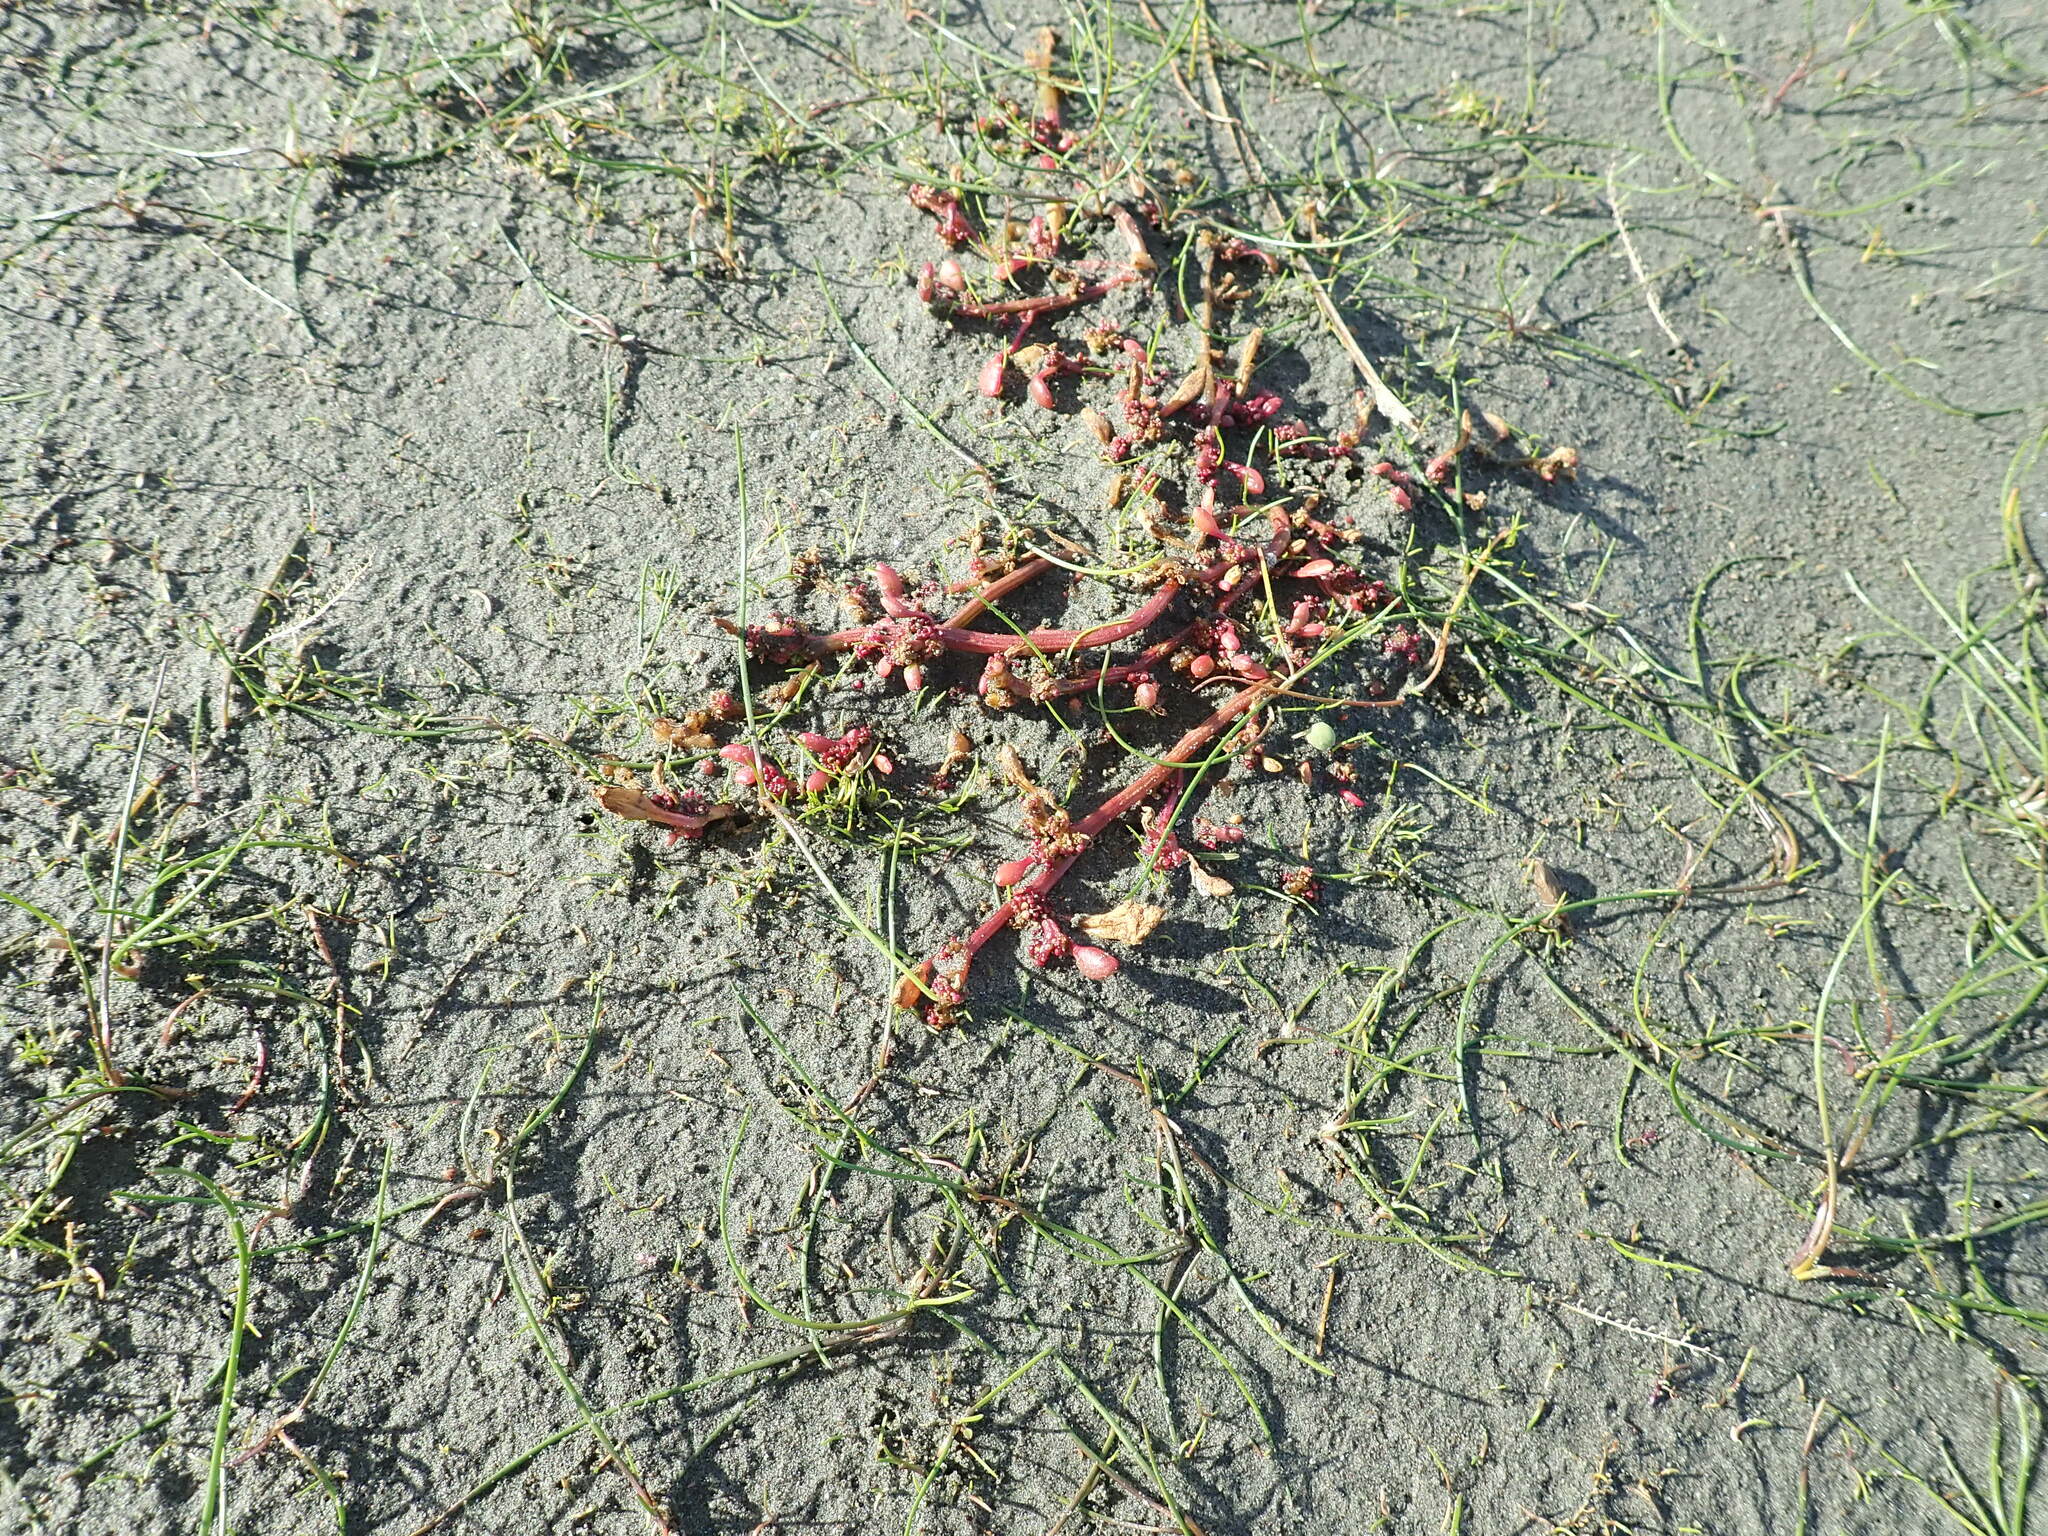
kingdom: Plantae
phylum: Tracheophyta
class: Magnoliopsida
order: Caryophyllales
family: Amaranthaceae
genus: Oxybasis
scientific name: Oxybasis ambigua
